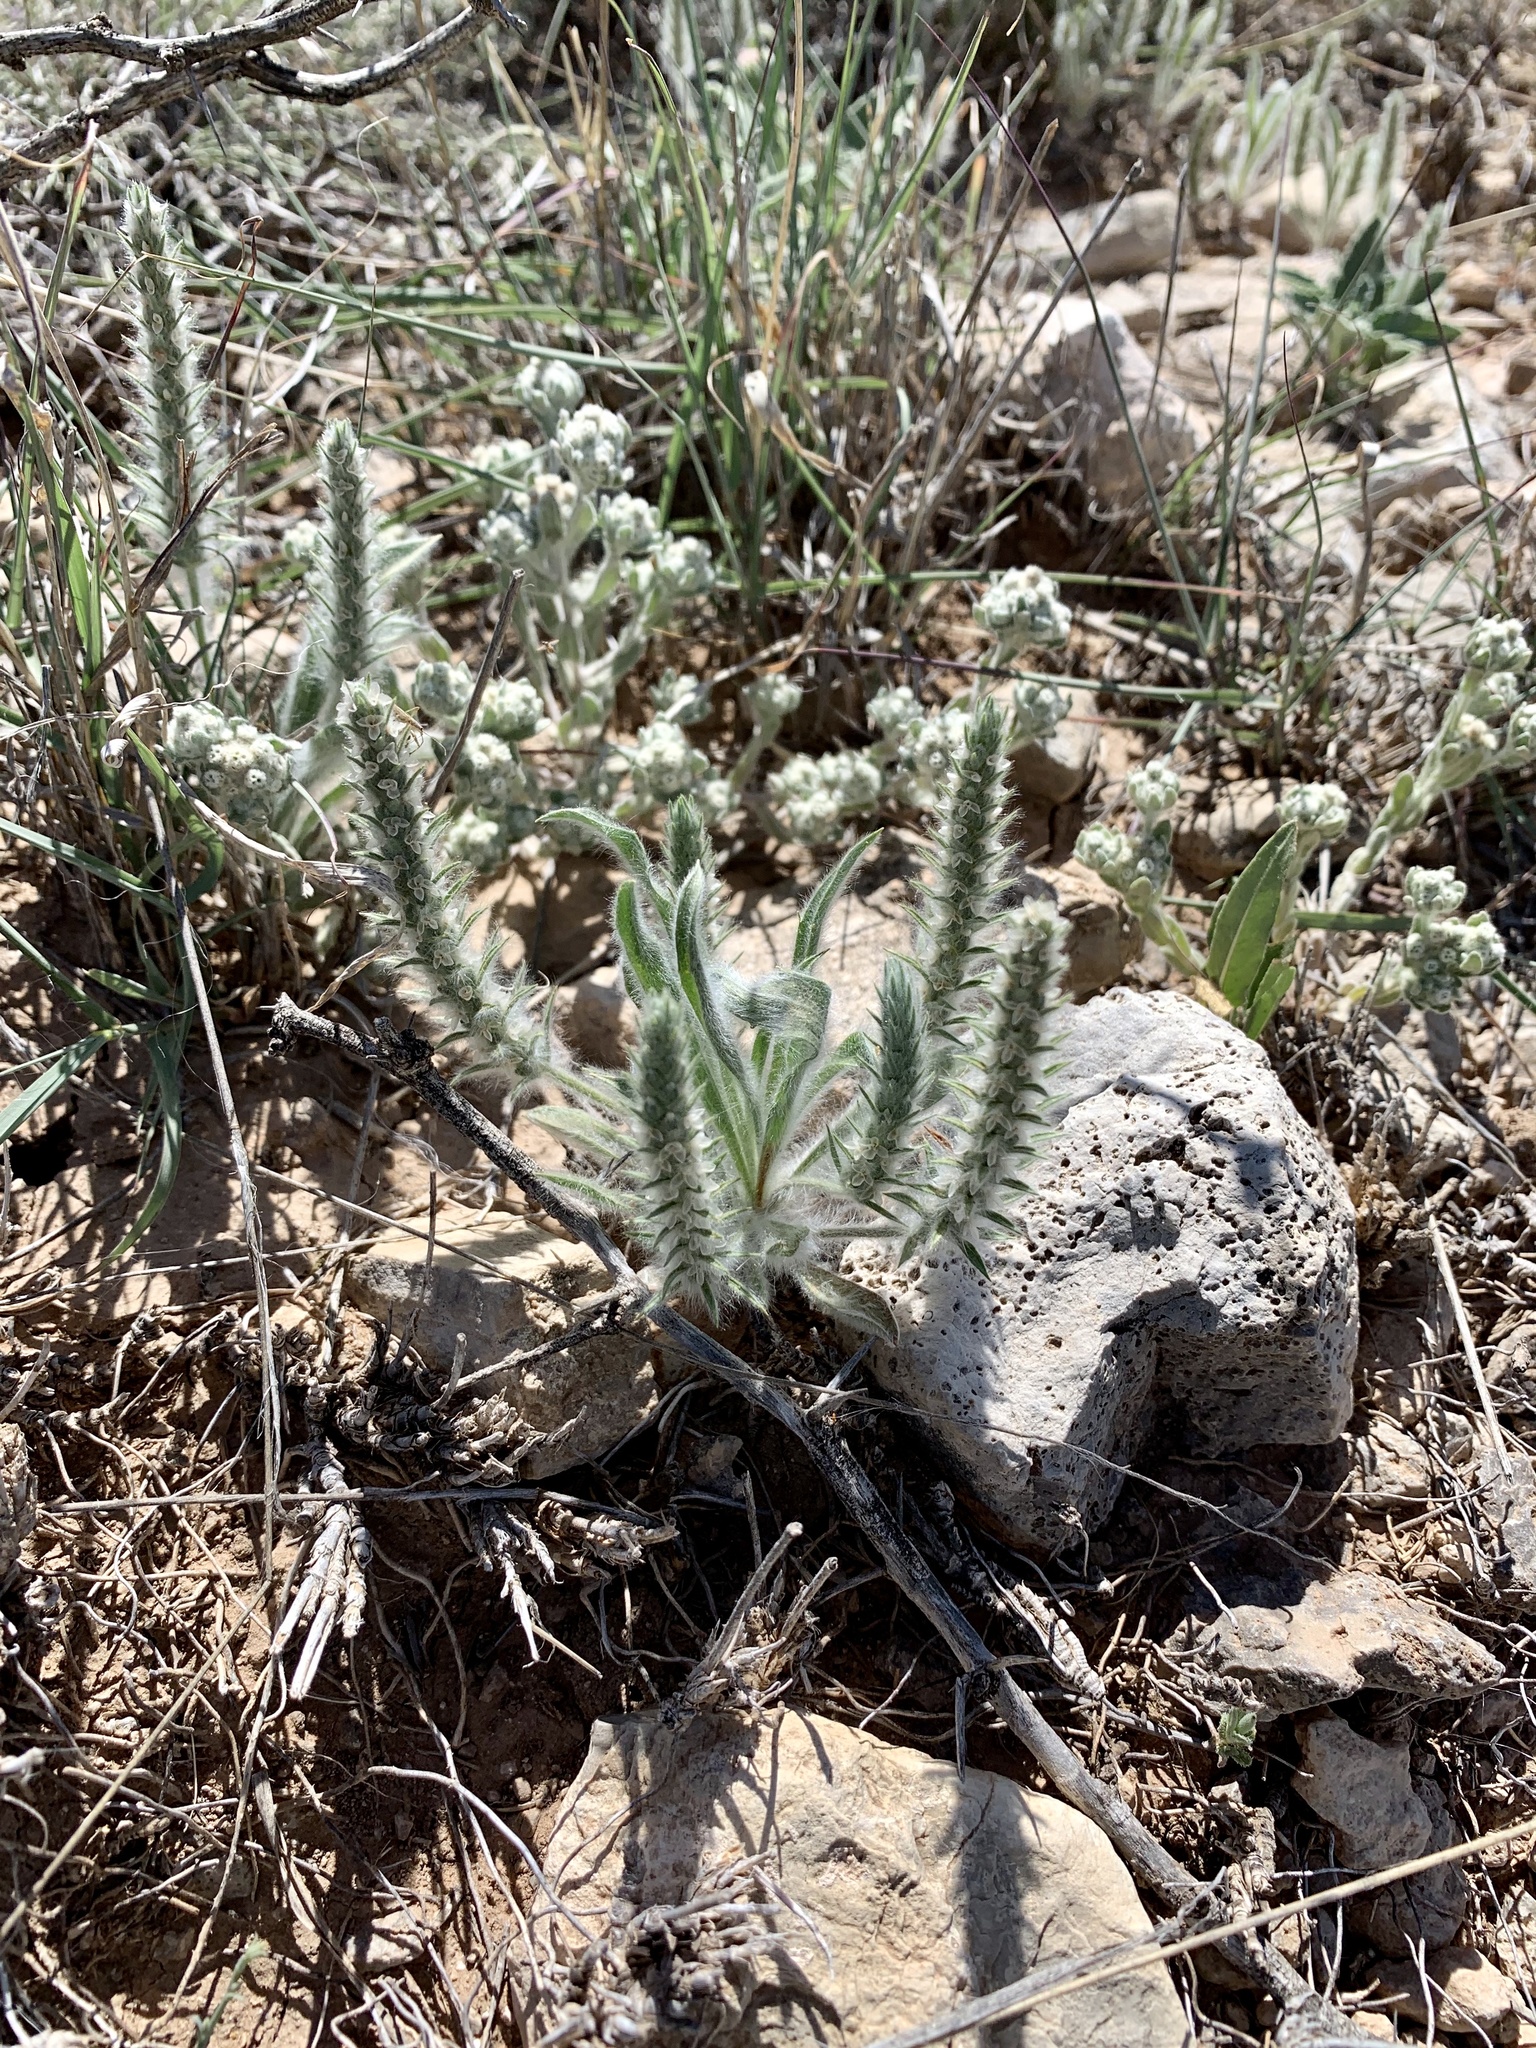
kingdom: Plantae
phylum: Tracheophyta
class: Magnoliopsida
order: Lamiales
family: Plantaginaceae
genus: Plantago
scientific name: Plantago patagonica
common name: Patagonia indian-wheat
